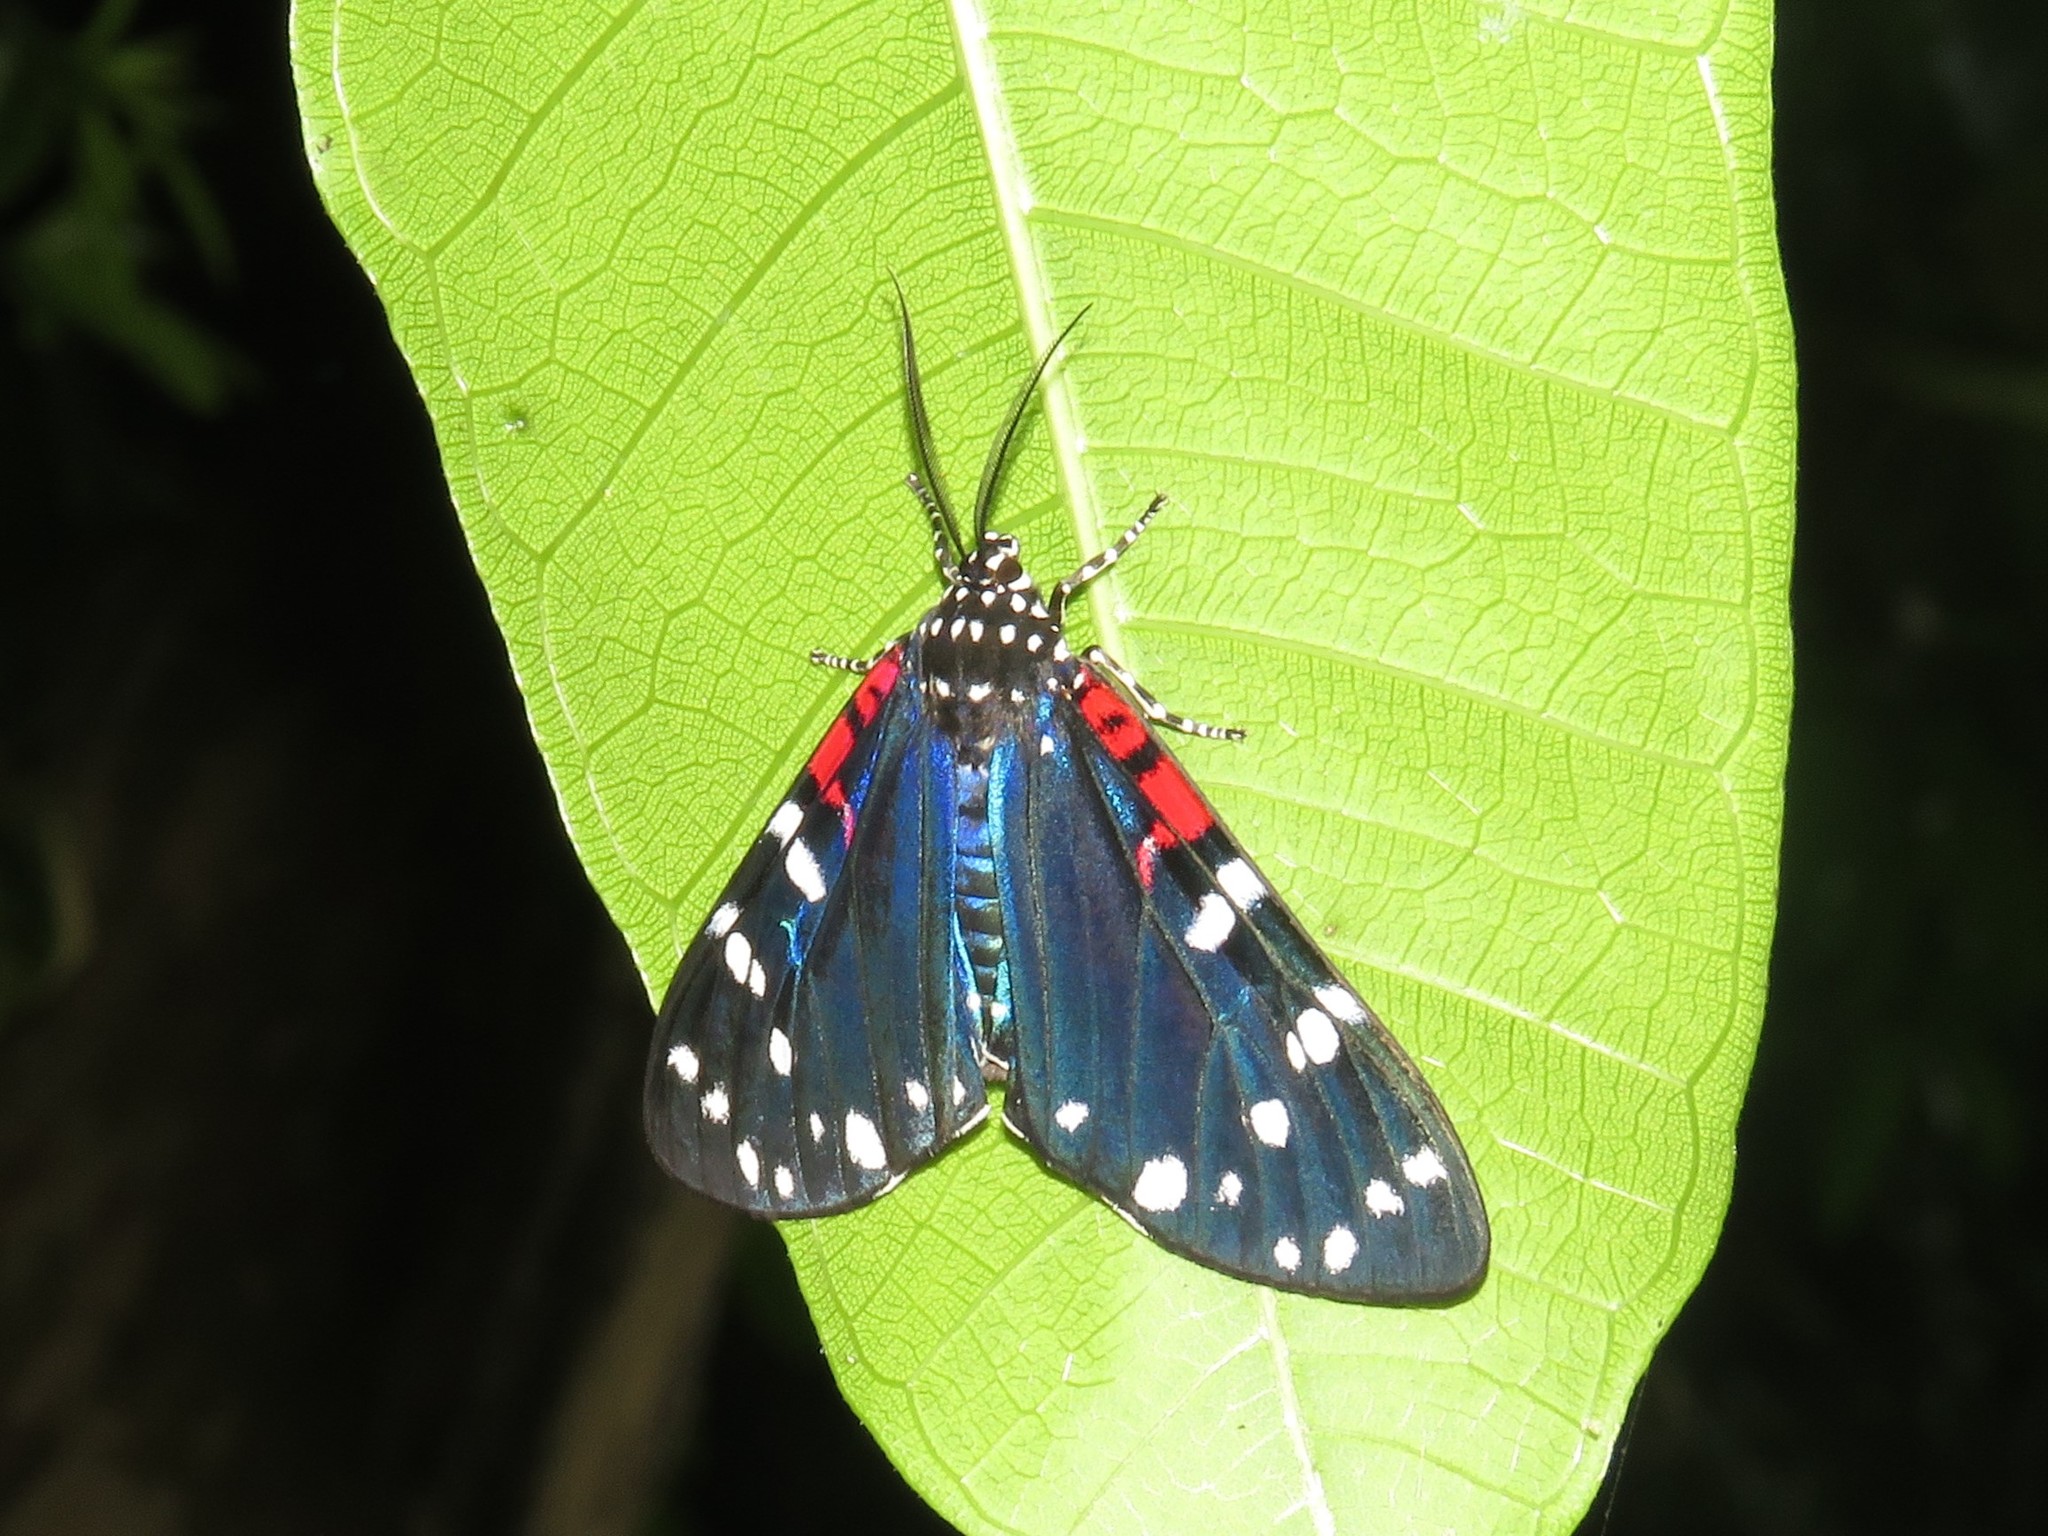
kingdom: Animalia
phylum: Arthropoda
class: Insecta
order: Lepidoptera
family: Erebidae
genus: Composia
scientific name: Composia fidelissima
